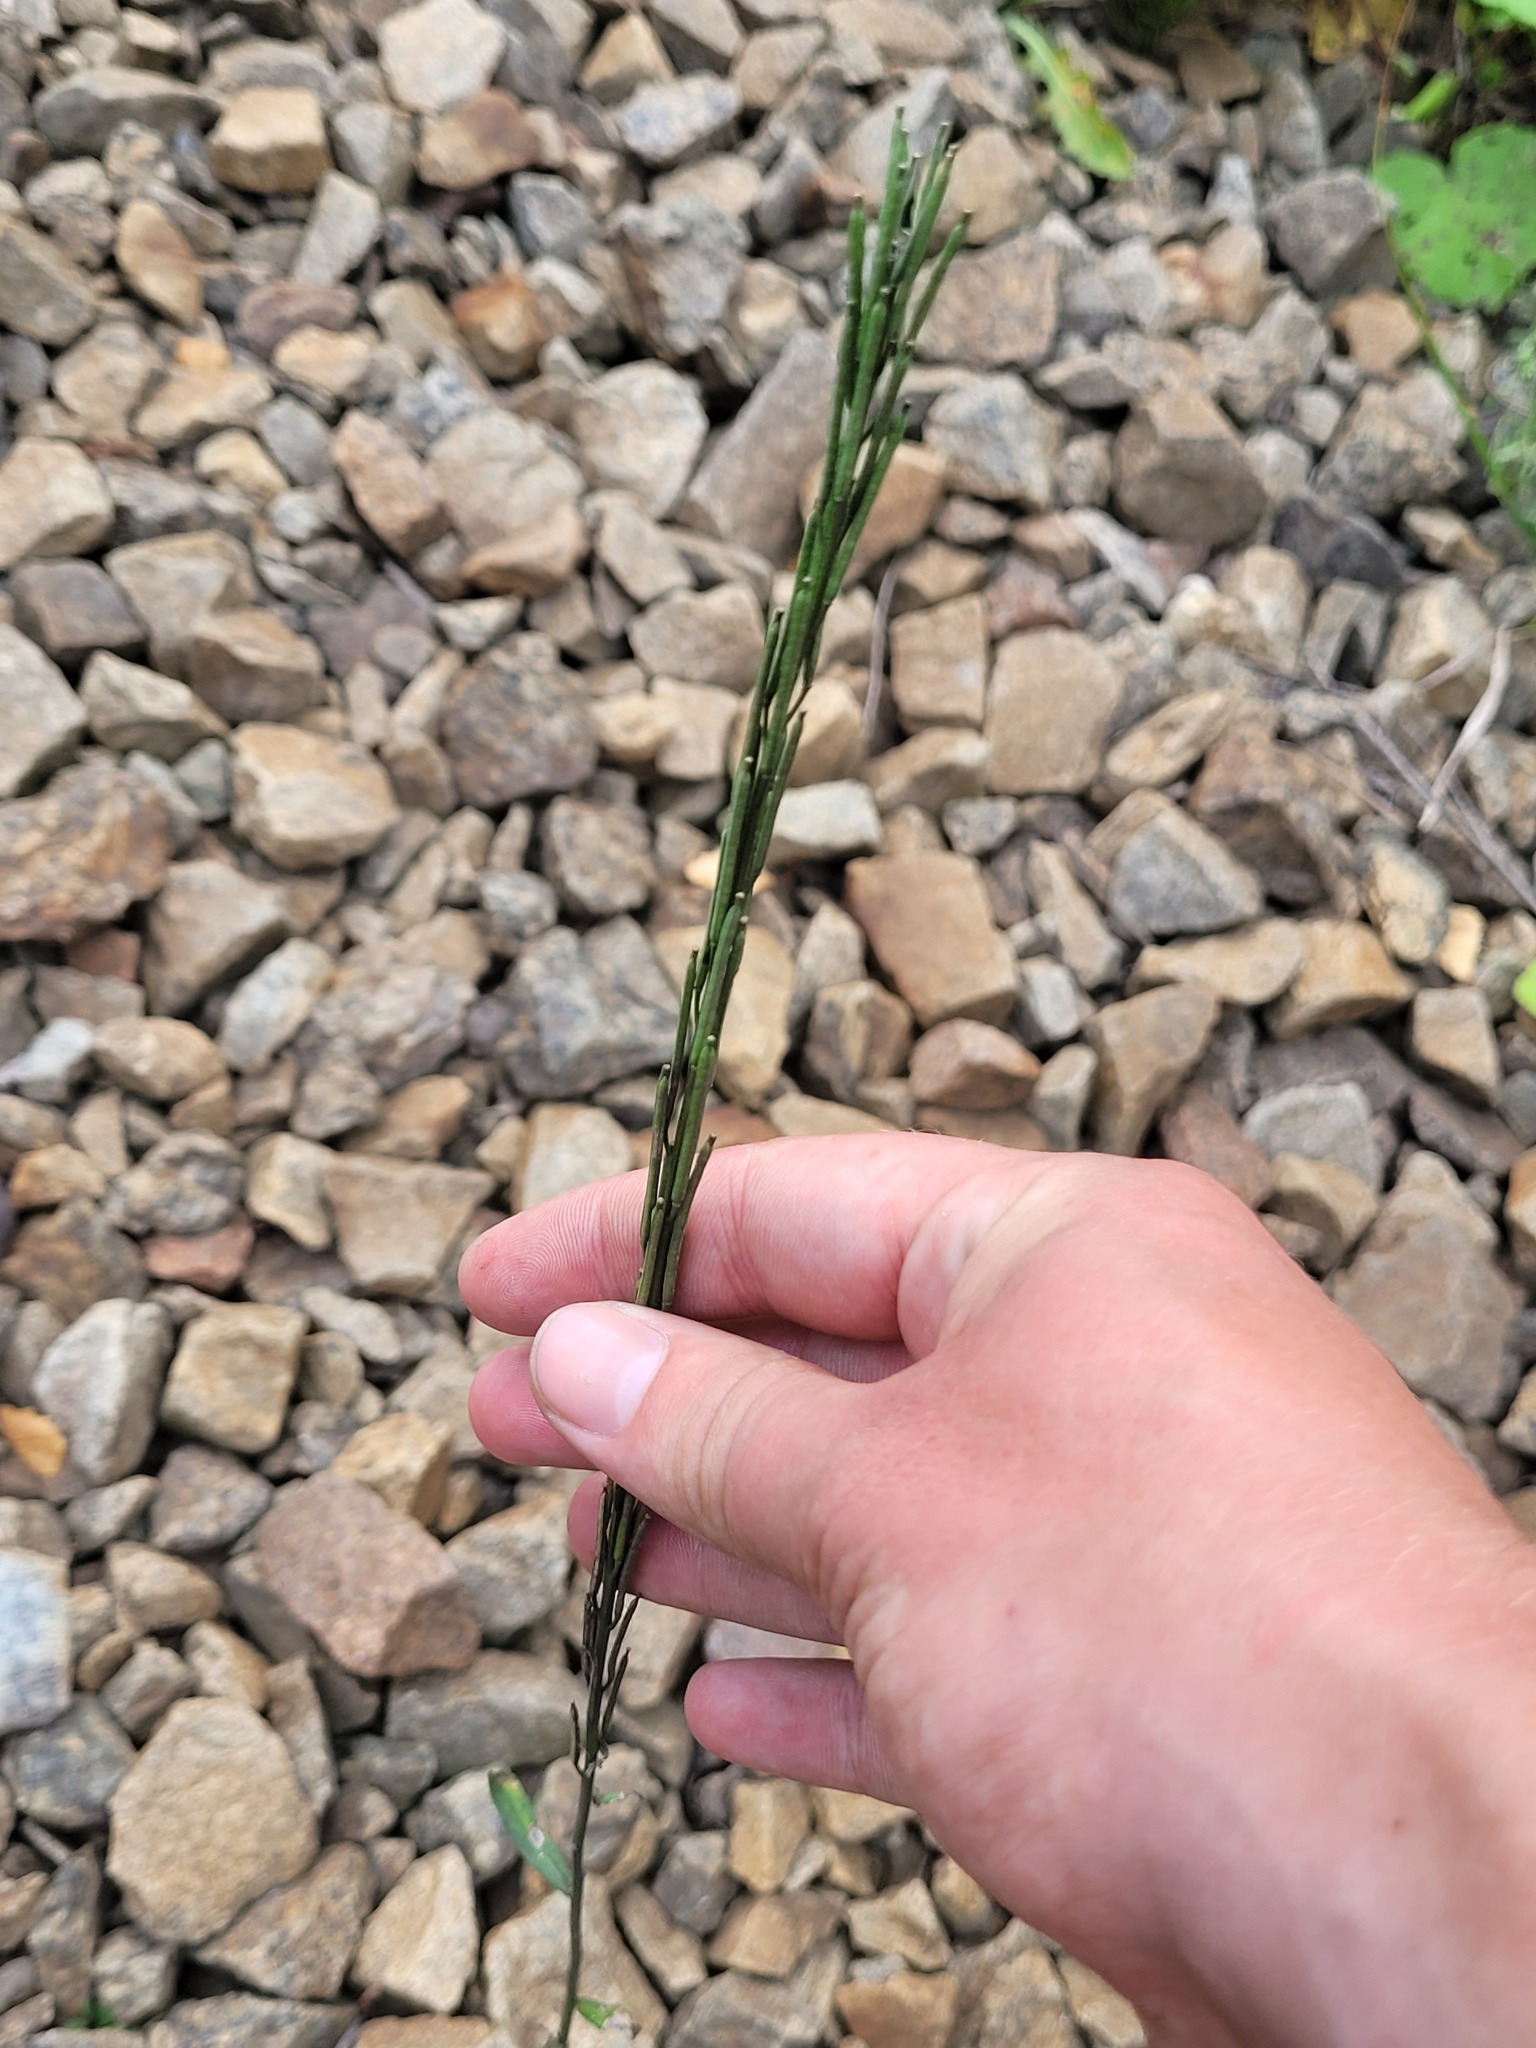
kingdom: Plantae
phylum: Tracheophyta
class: Magnoliopsida
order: Brassicales
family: Brassicaceae
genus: Erysimum
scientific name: Erysimum hieraciifolium
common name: European wallflower
